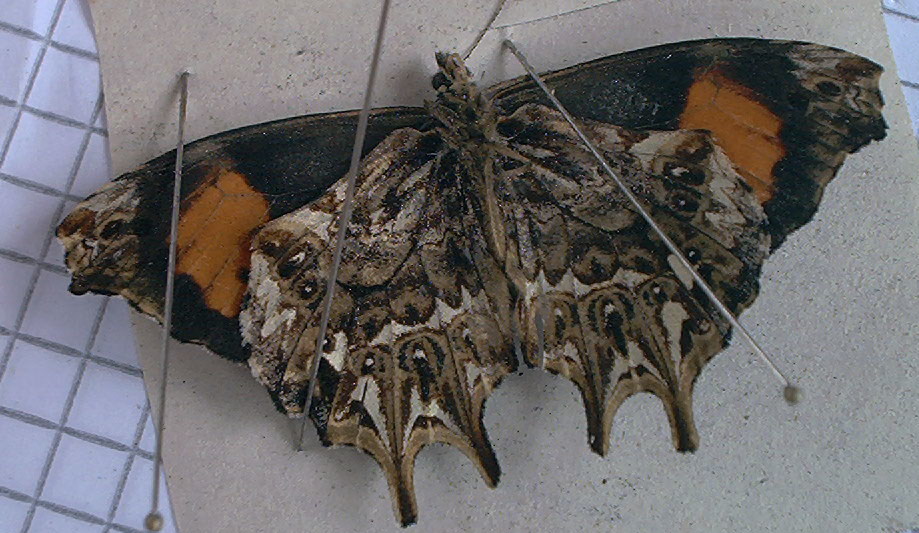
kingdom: Animalia
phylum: Arthropoda
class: Insecta
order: Lepidoptera
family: Nymphalidae
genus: Daedalma
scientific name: Daedalma dinias
